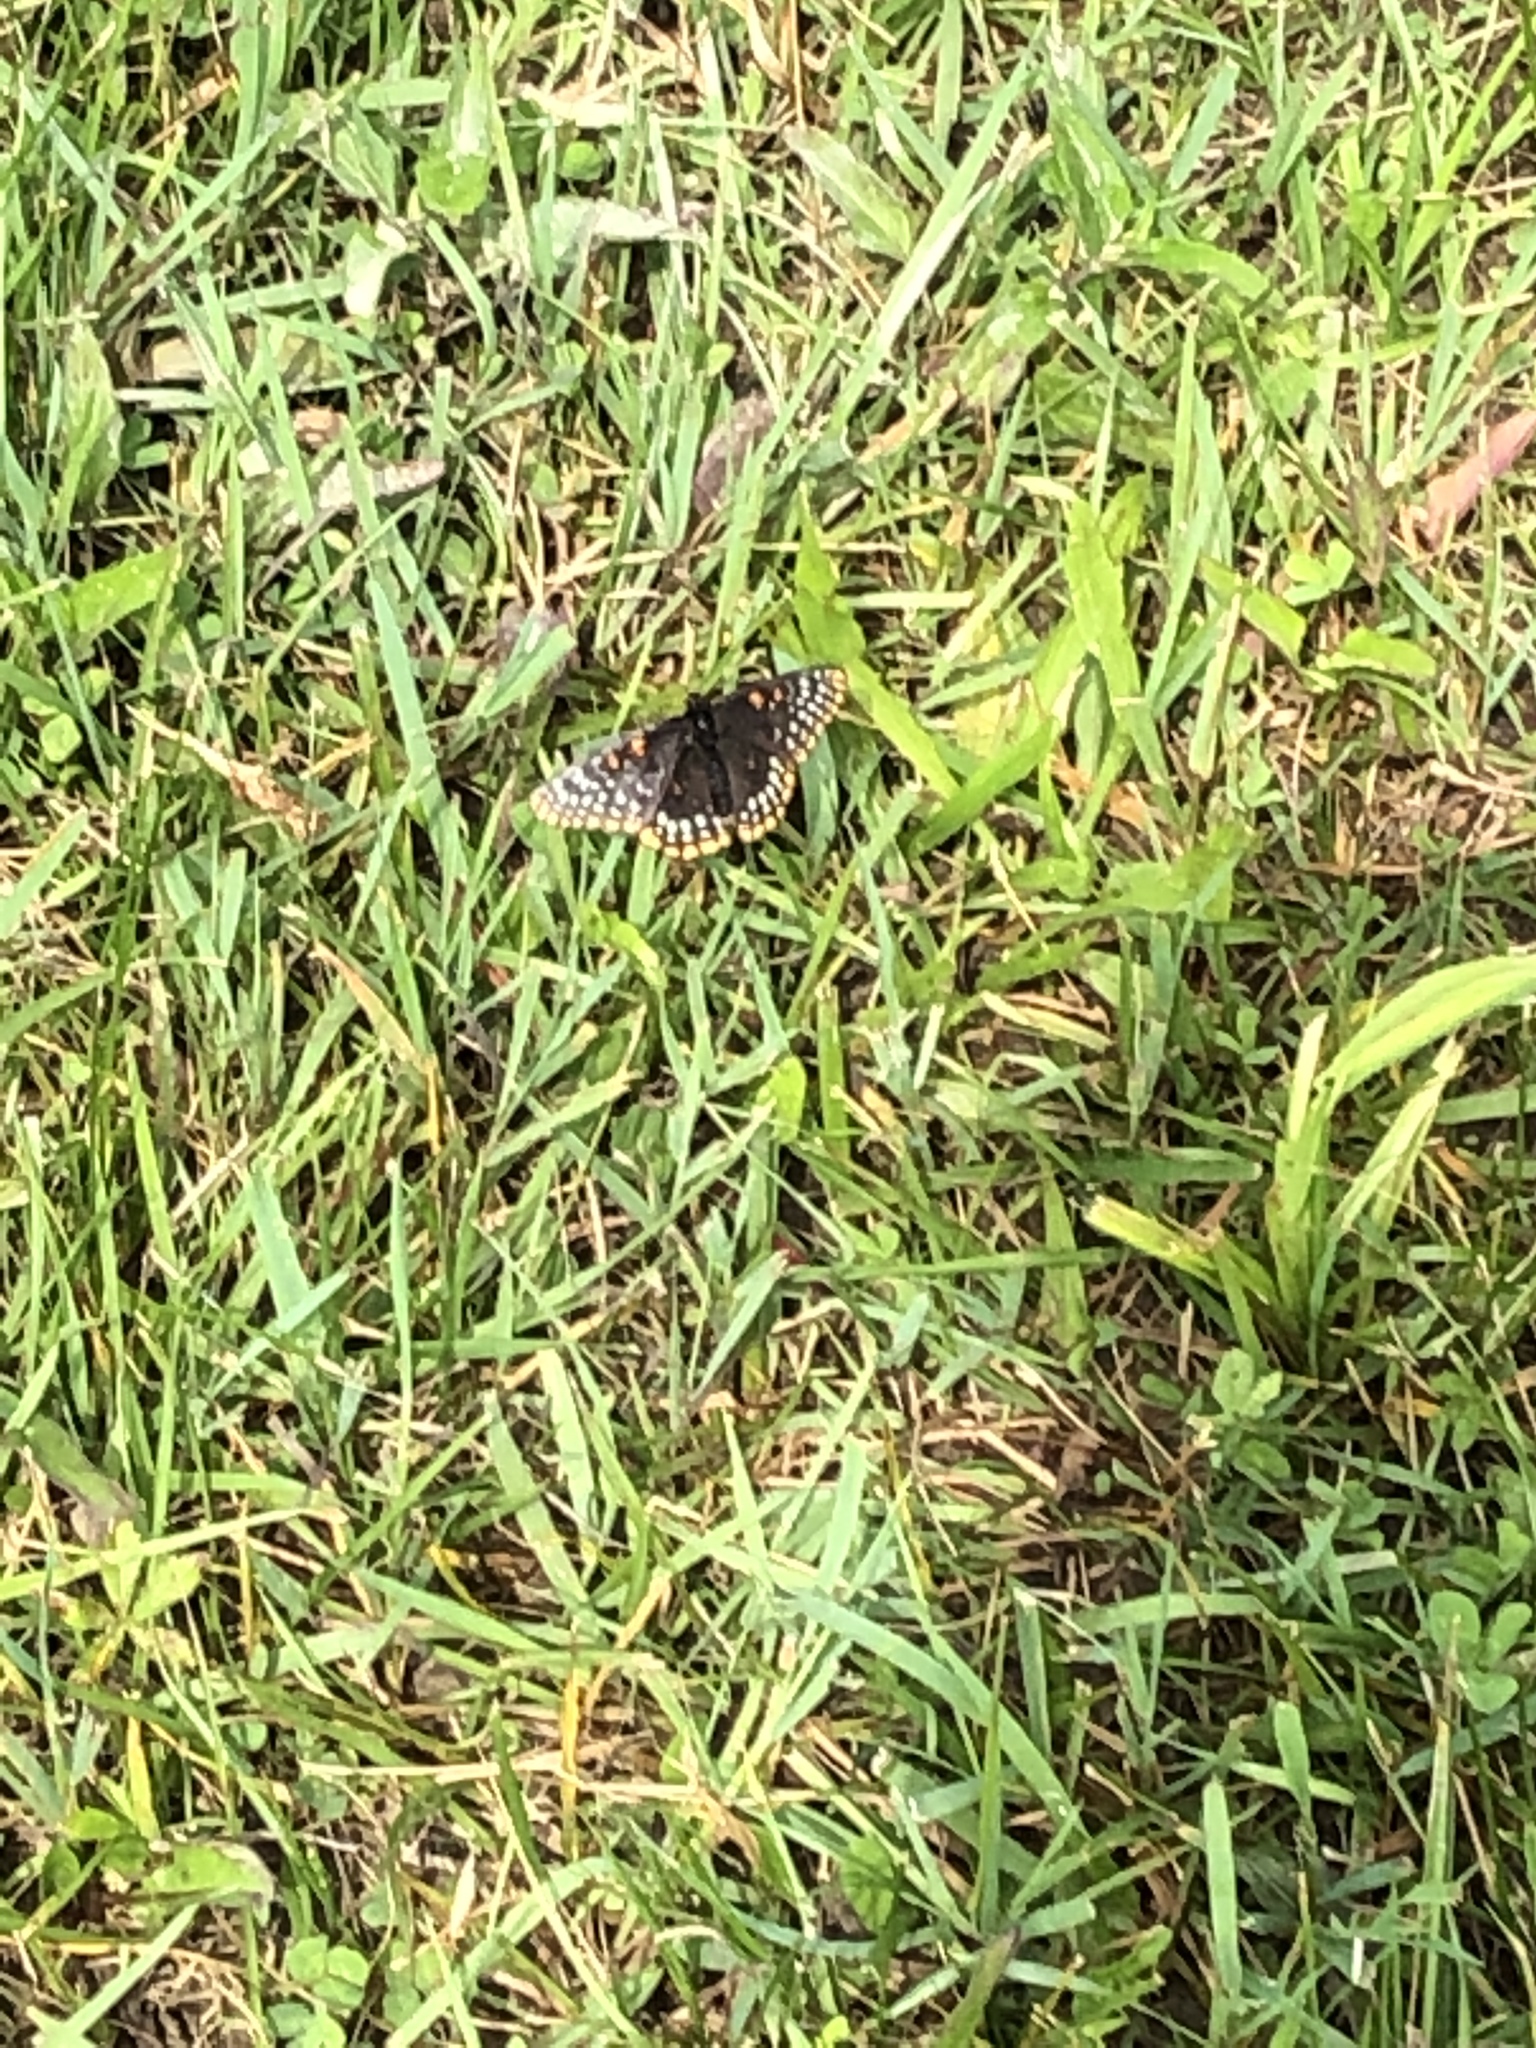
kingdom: Animalia
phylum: Arthropoda
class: Insecta
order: Lepidoptera
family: Nymphalidae
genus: Euphydryas
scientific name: Euphydryas phaeton
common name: Baltimore checkerspot
